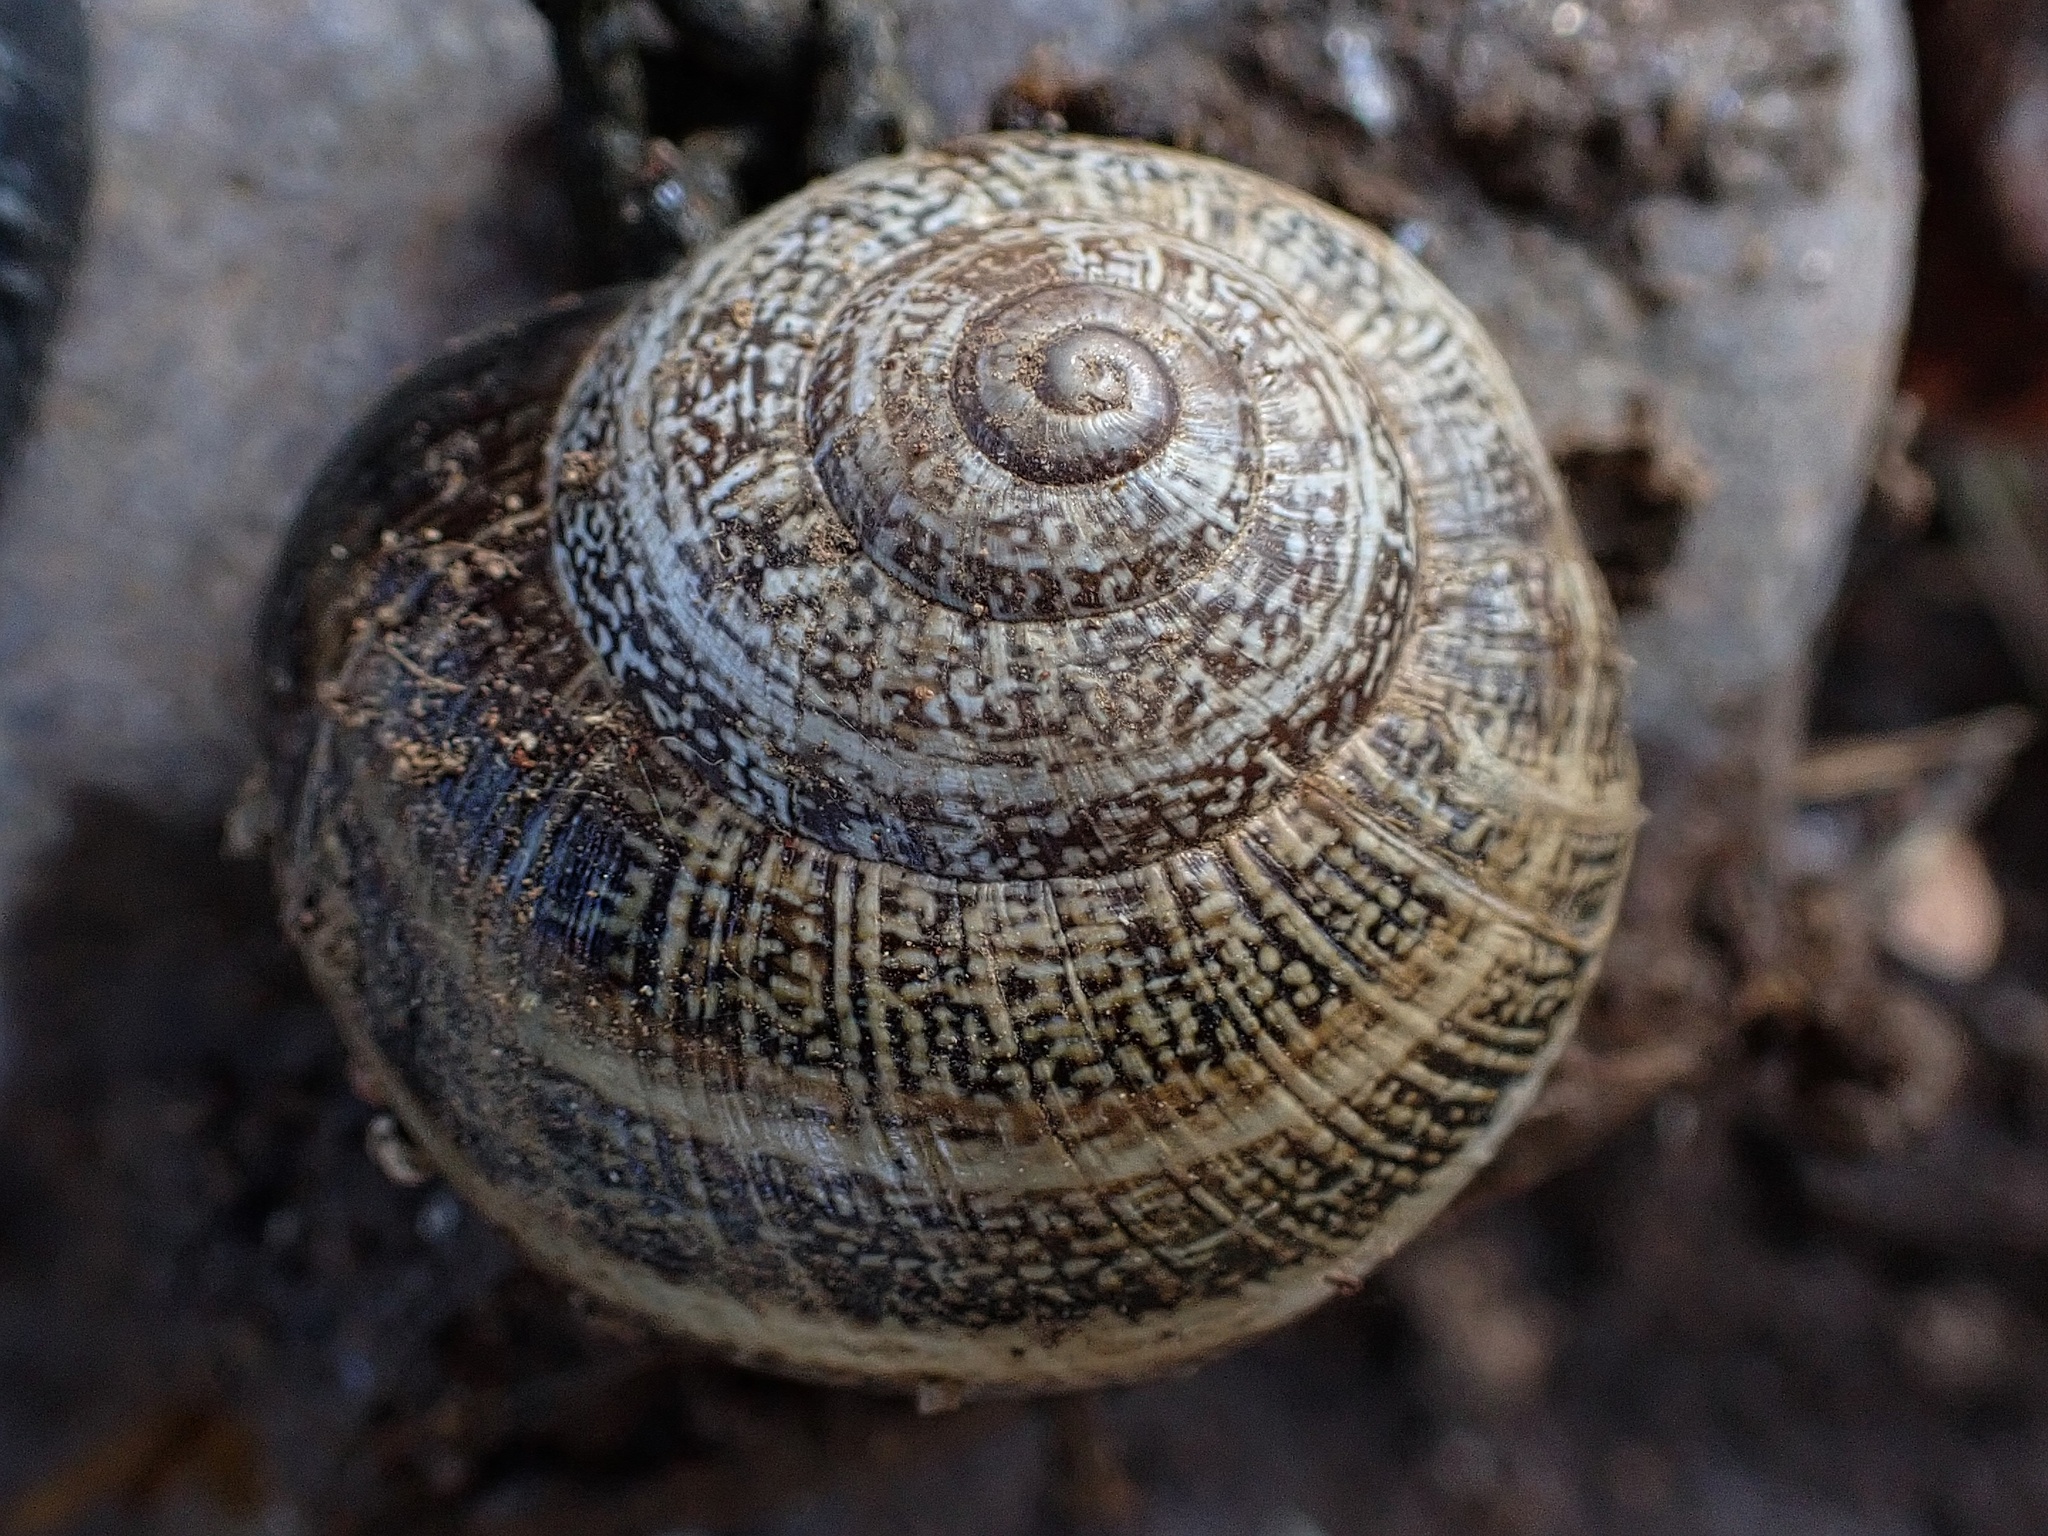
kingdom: Animalia
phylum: Mollusca
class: Gastropoda
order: Stylommatophora
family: Helicidae
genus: Otala
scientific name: Otala lactea
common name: Milk snail
